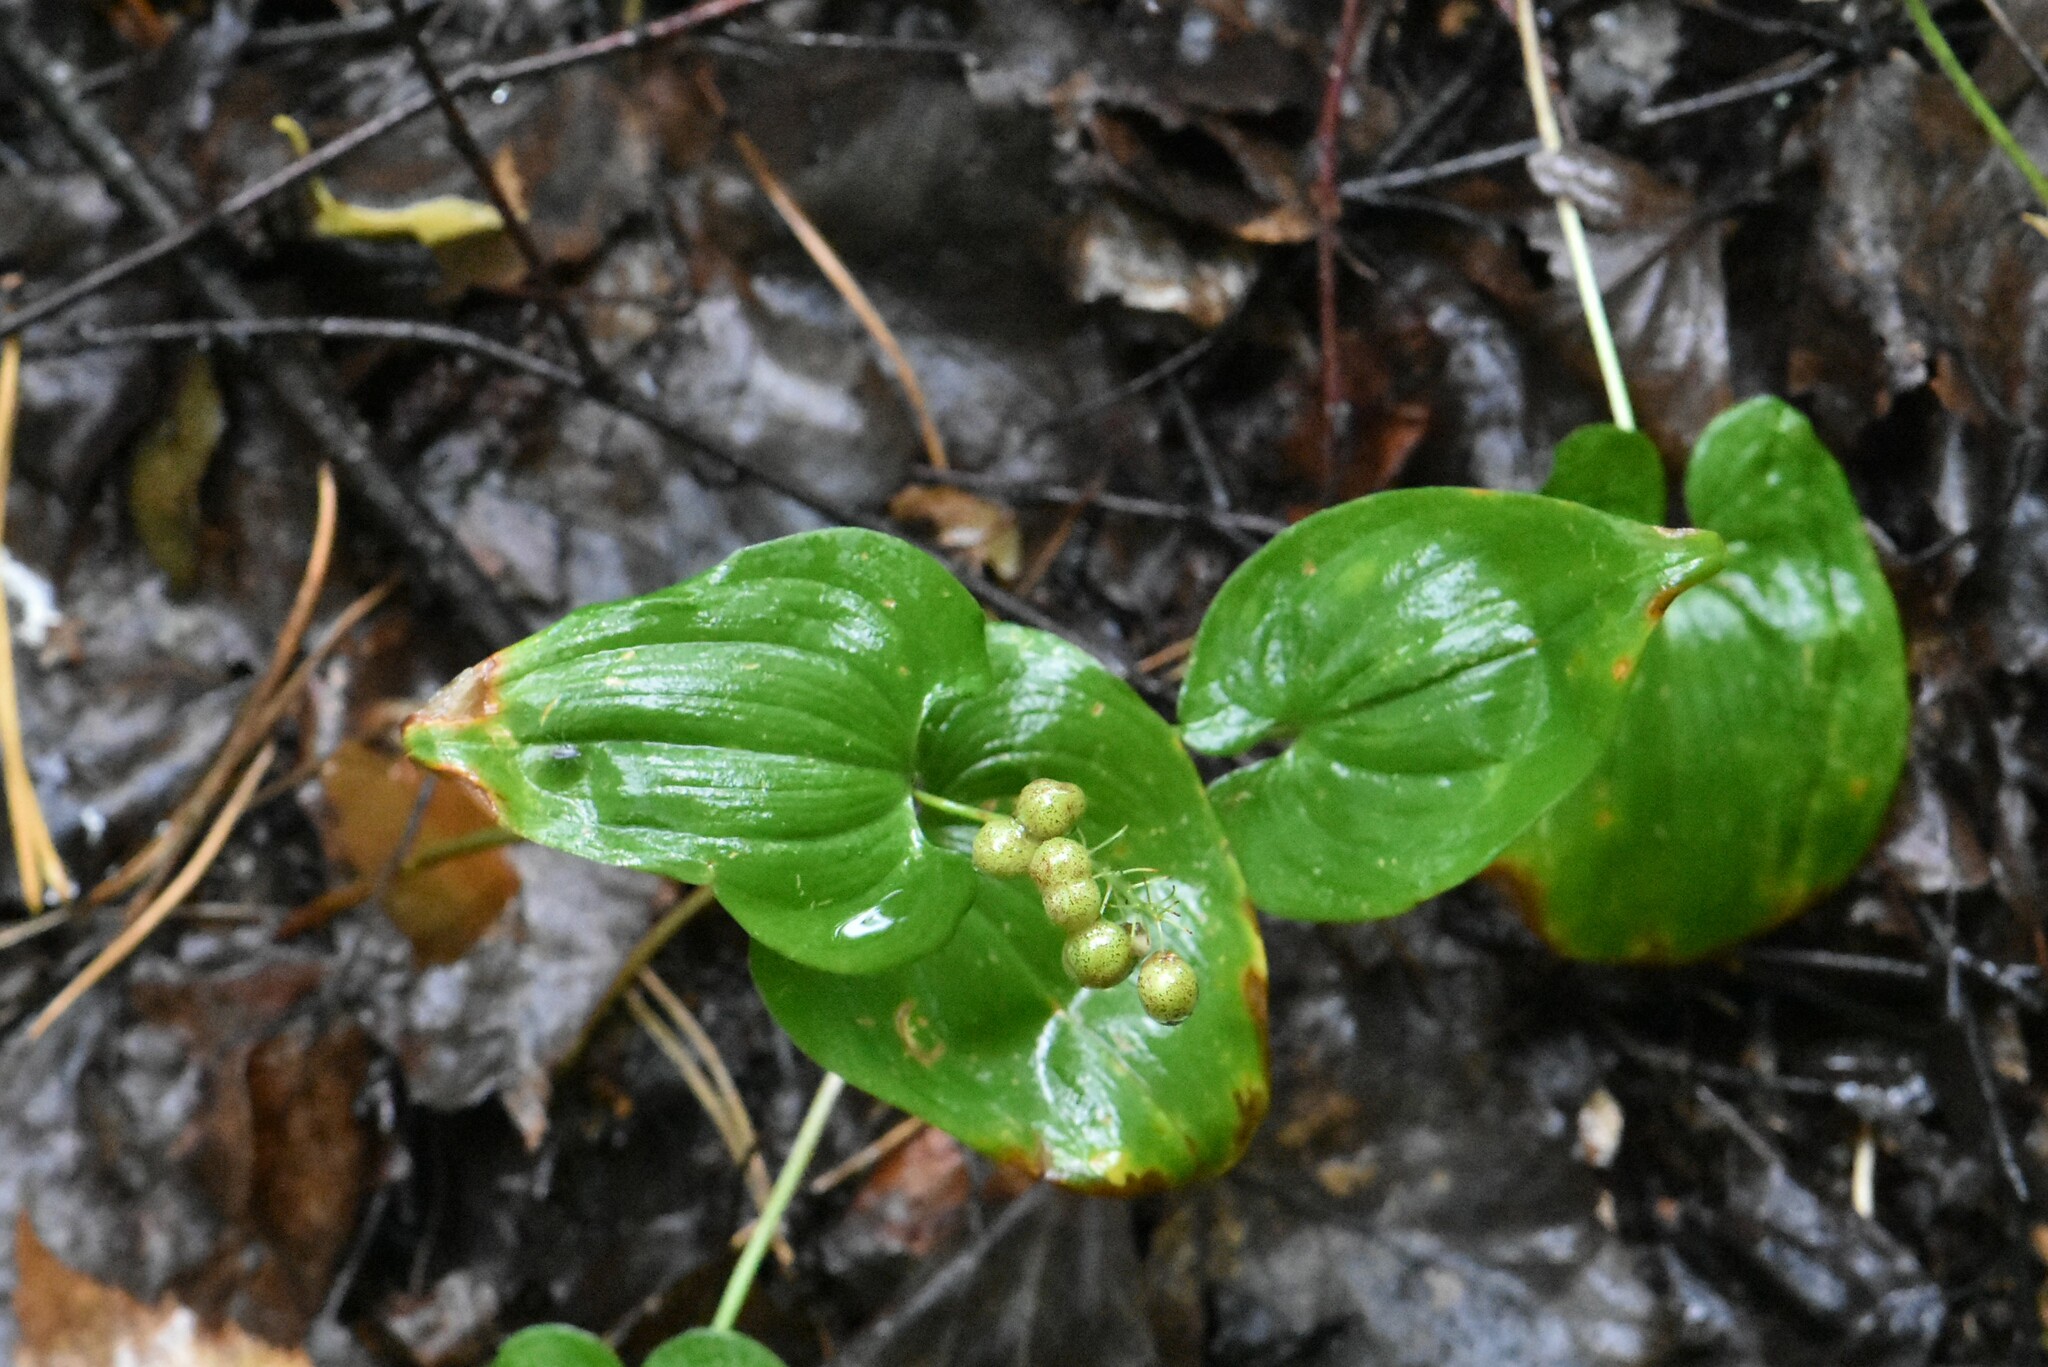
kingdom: Plantae
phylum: Tracheophyta
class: Liliopsida
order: Asparagales
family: Asparagaceae
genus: Maianthemum
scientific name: Maianthemum bifolium
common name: May lily
